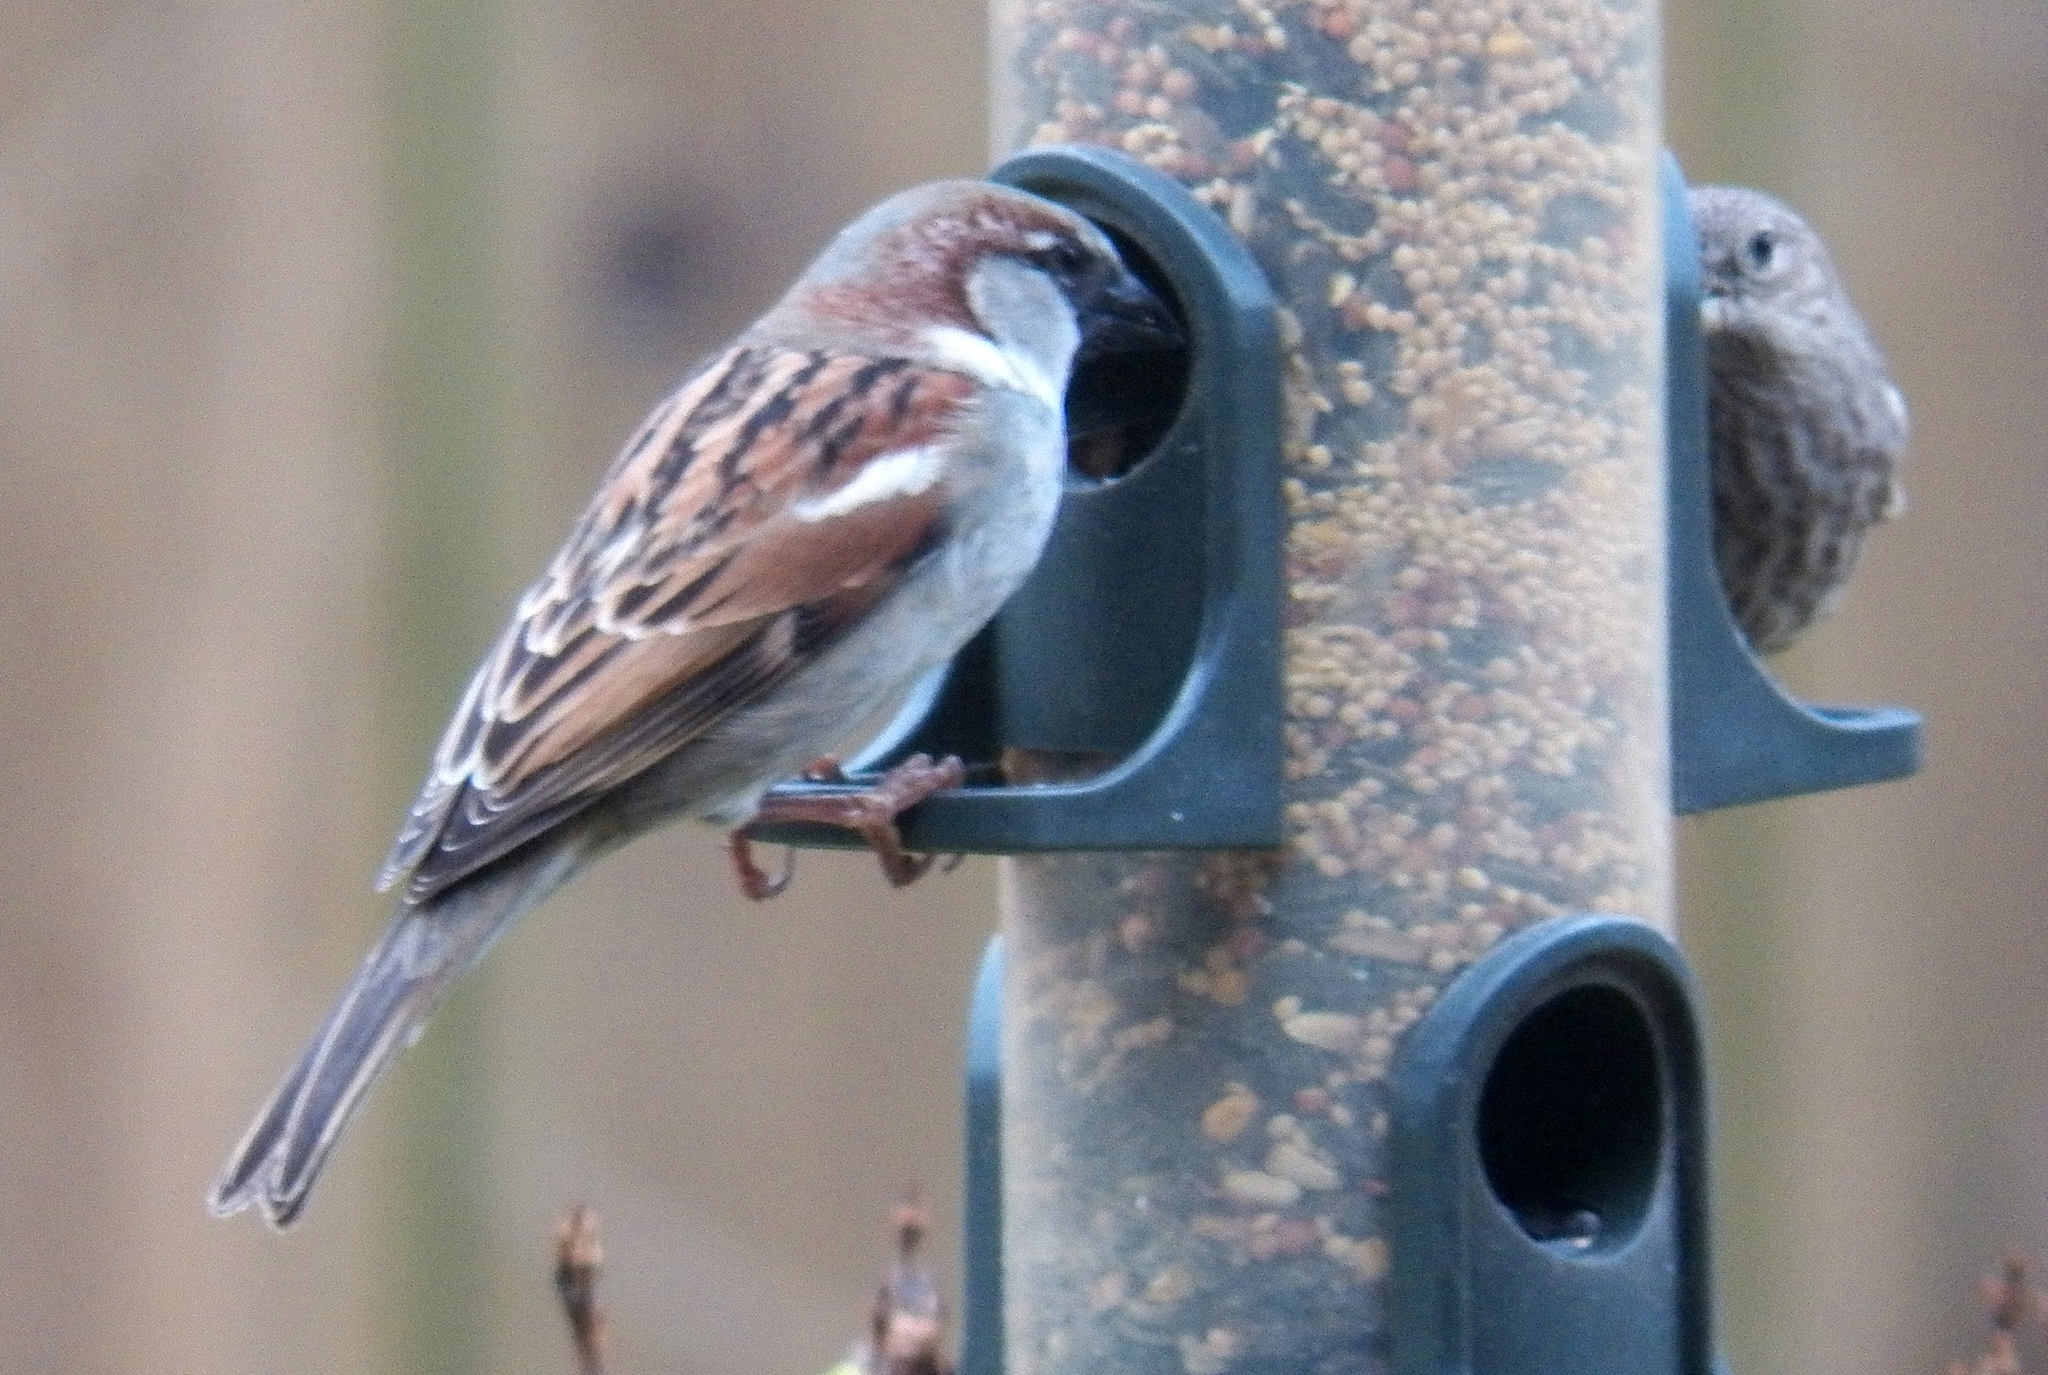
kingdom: Animalia
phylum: Chordata
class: Aves
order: Passeriformes
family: Passeridae
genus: Passer
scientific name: Passer domesticus
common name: House sparrow
